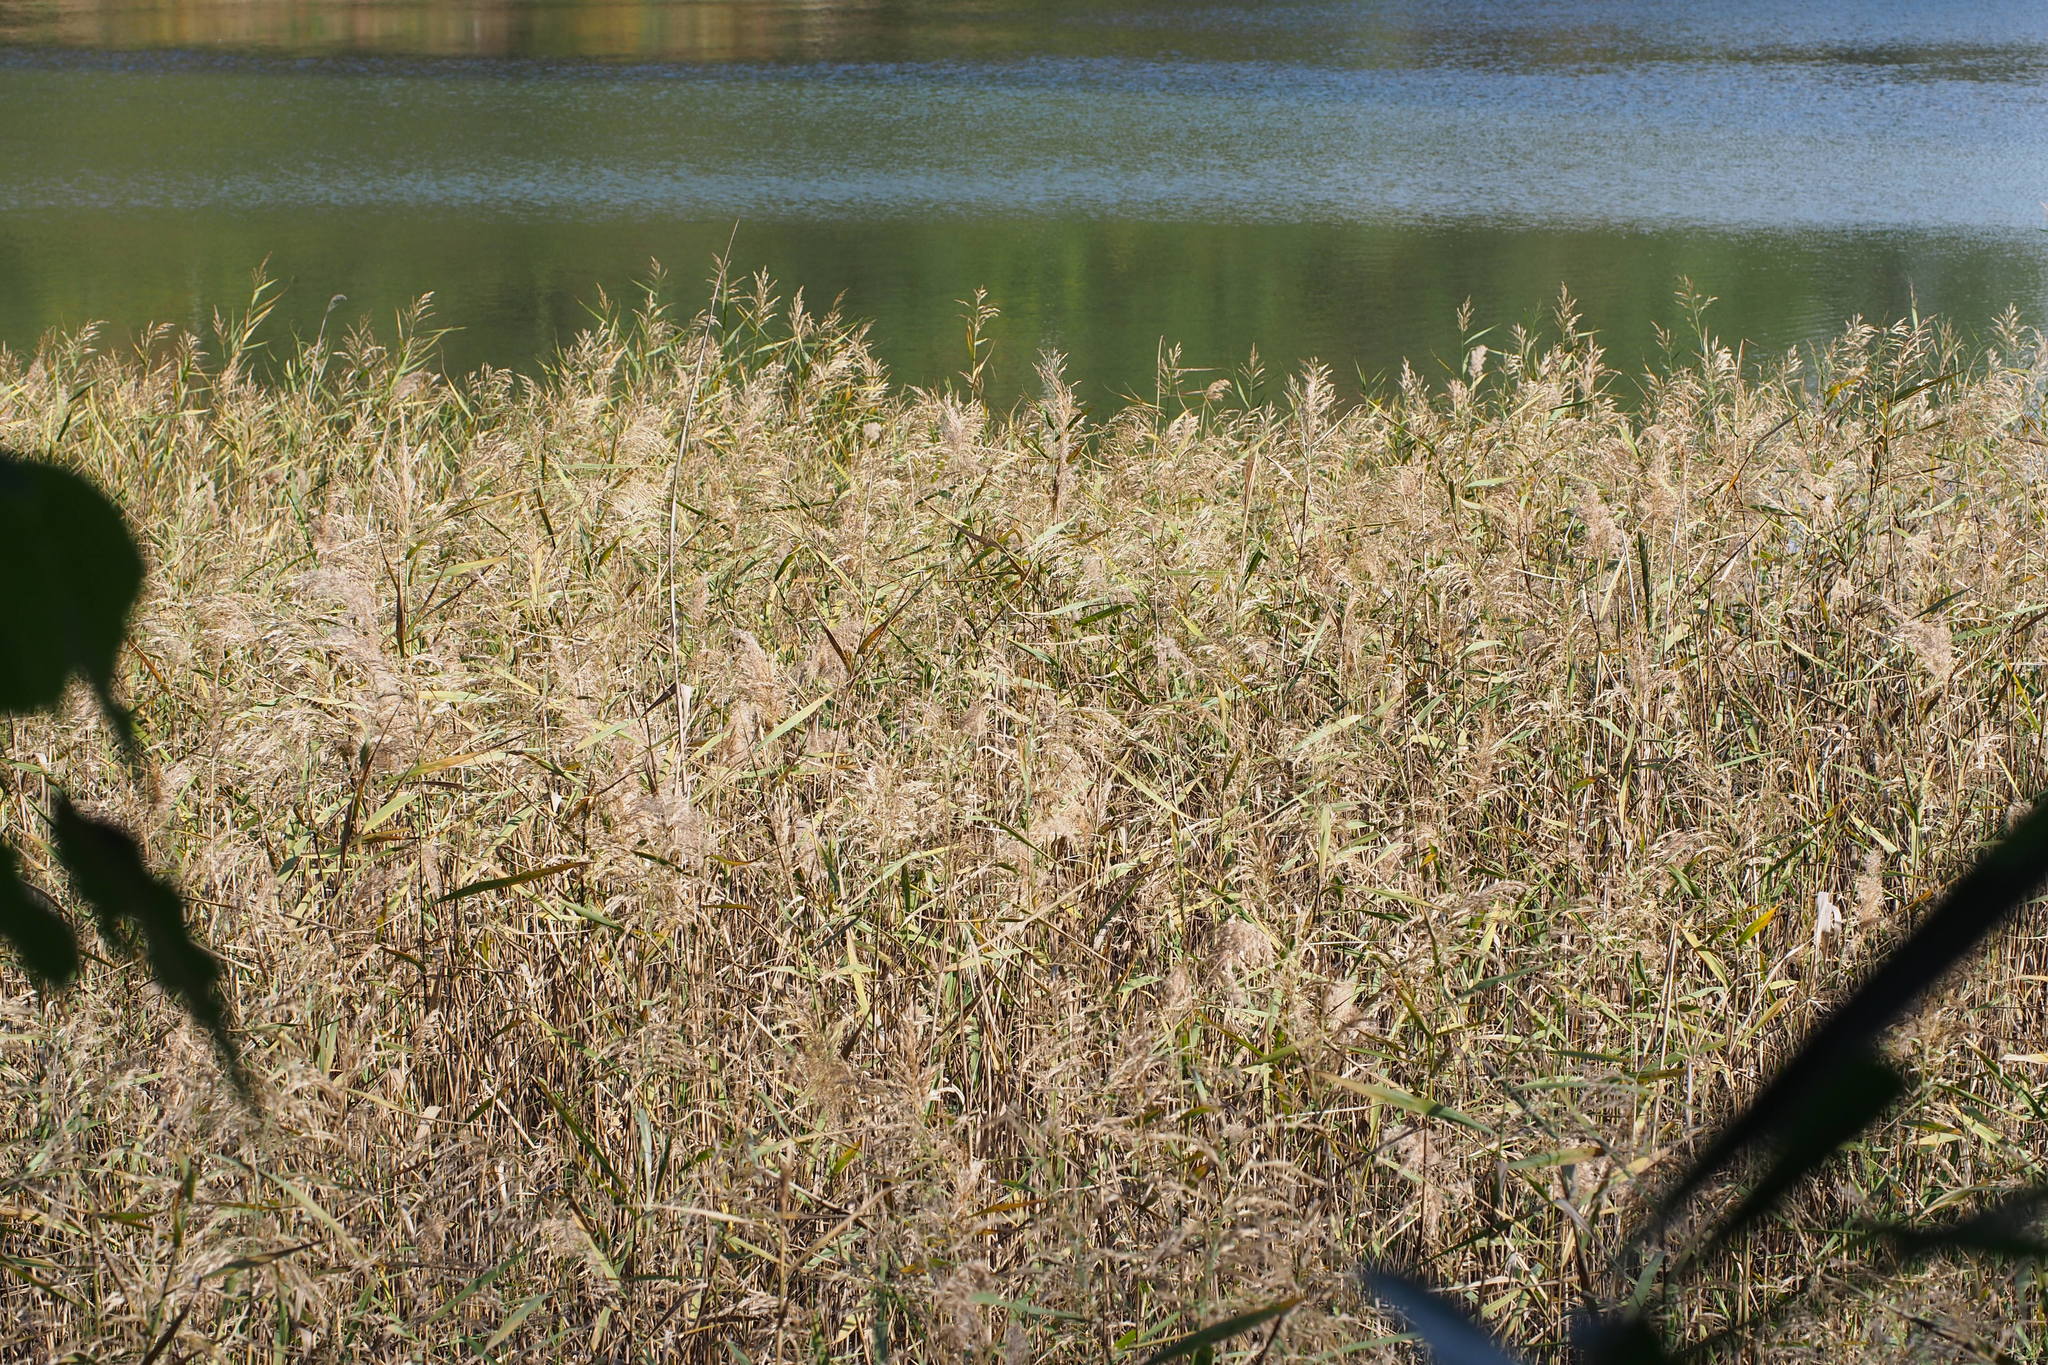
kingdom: Plantae
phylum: Tracheophyta
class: Liliopsida
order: Poales
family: Poaceae
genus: Phragmites
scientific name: Phragmites australis
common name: Common reed
